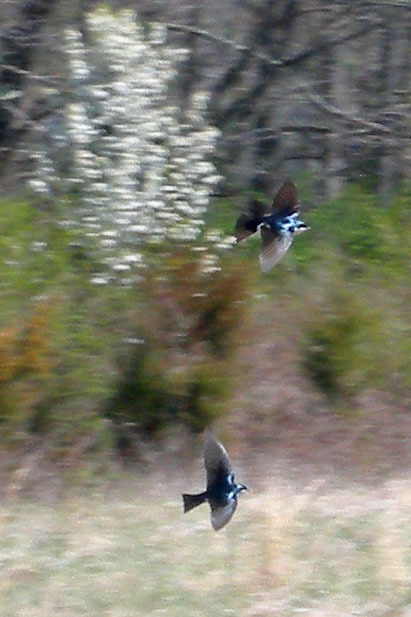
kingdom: Animalia
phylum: Chordata
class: Aves
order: Passeriformes
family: Hirundinidae
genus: Tachycineta
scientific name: Tachycineta bicolor
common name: Tree swallow
